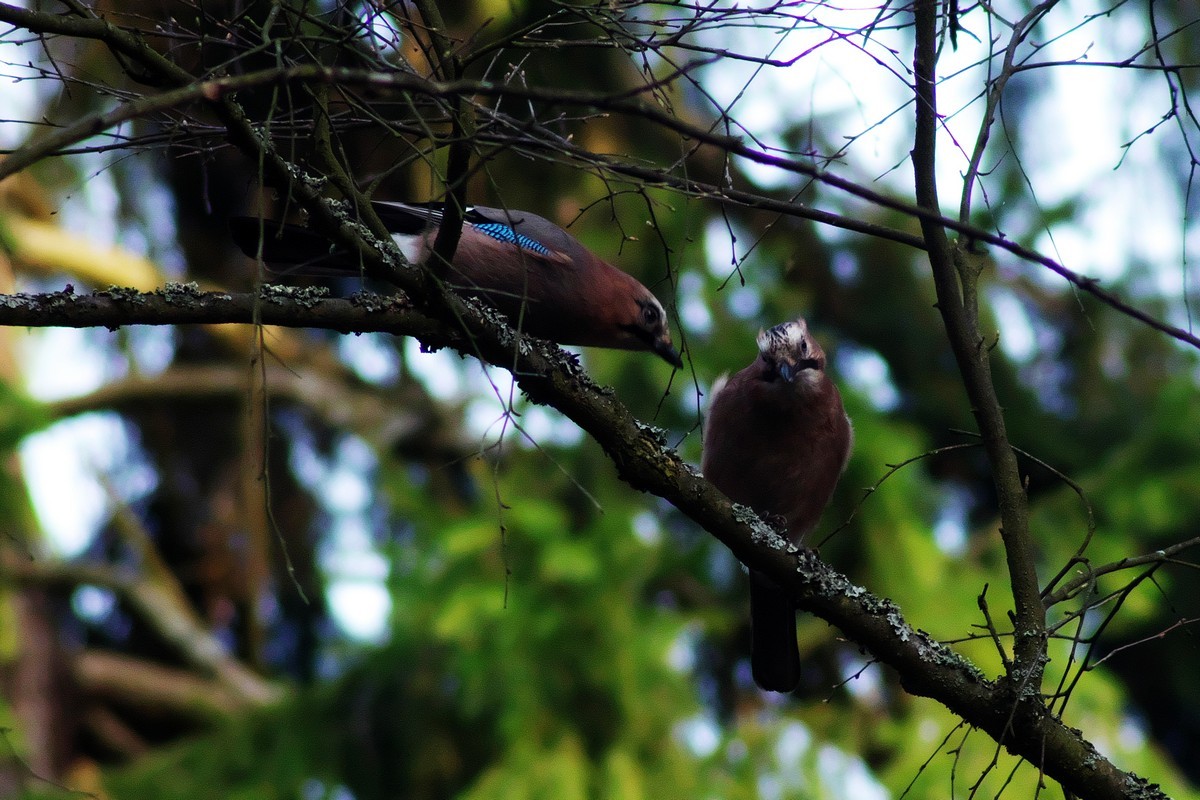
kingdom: Animalia
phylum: Chordata
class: Aves
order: Passeriformes
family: Corvidae
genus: Garrulus
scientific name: Garrulus glandarius
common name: Eurasian jay
